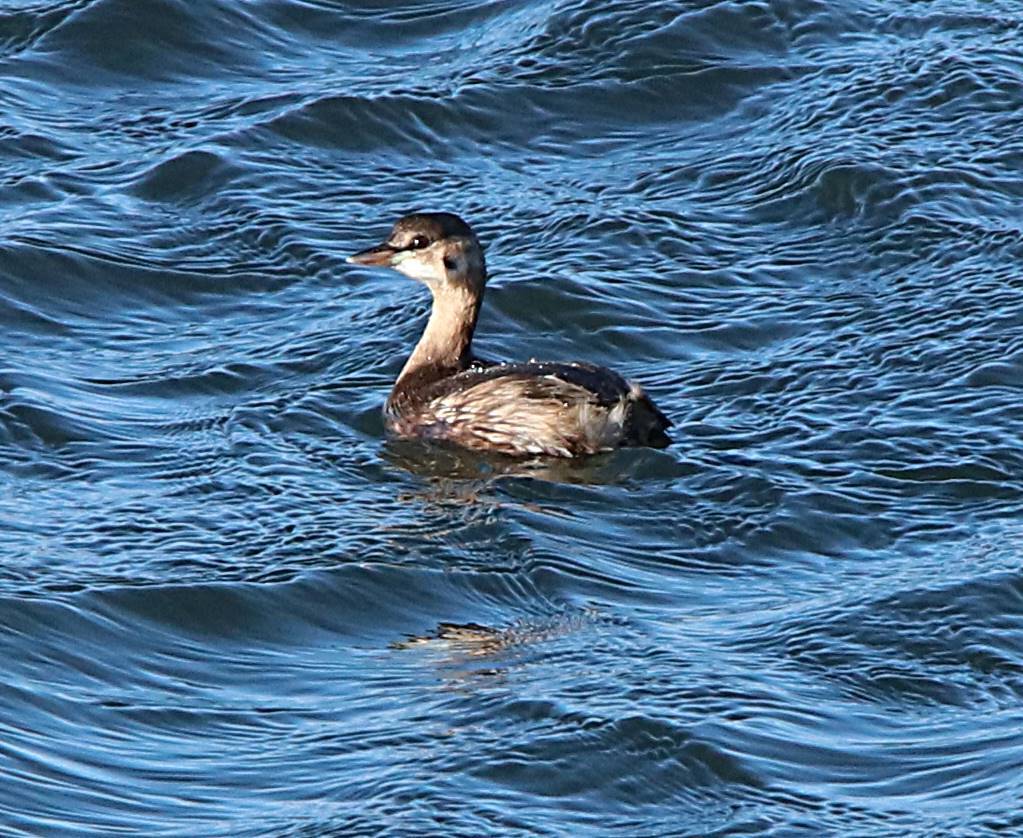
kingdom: Animalia
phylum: Chordata
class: Aves
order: Podicipediformes
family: Podicipedidae
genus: Tachybaptus
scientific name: Tachybaptus ruficollis
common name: Little grebe
